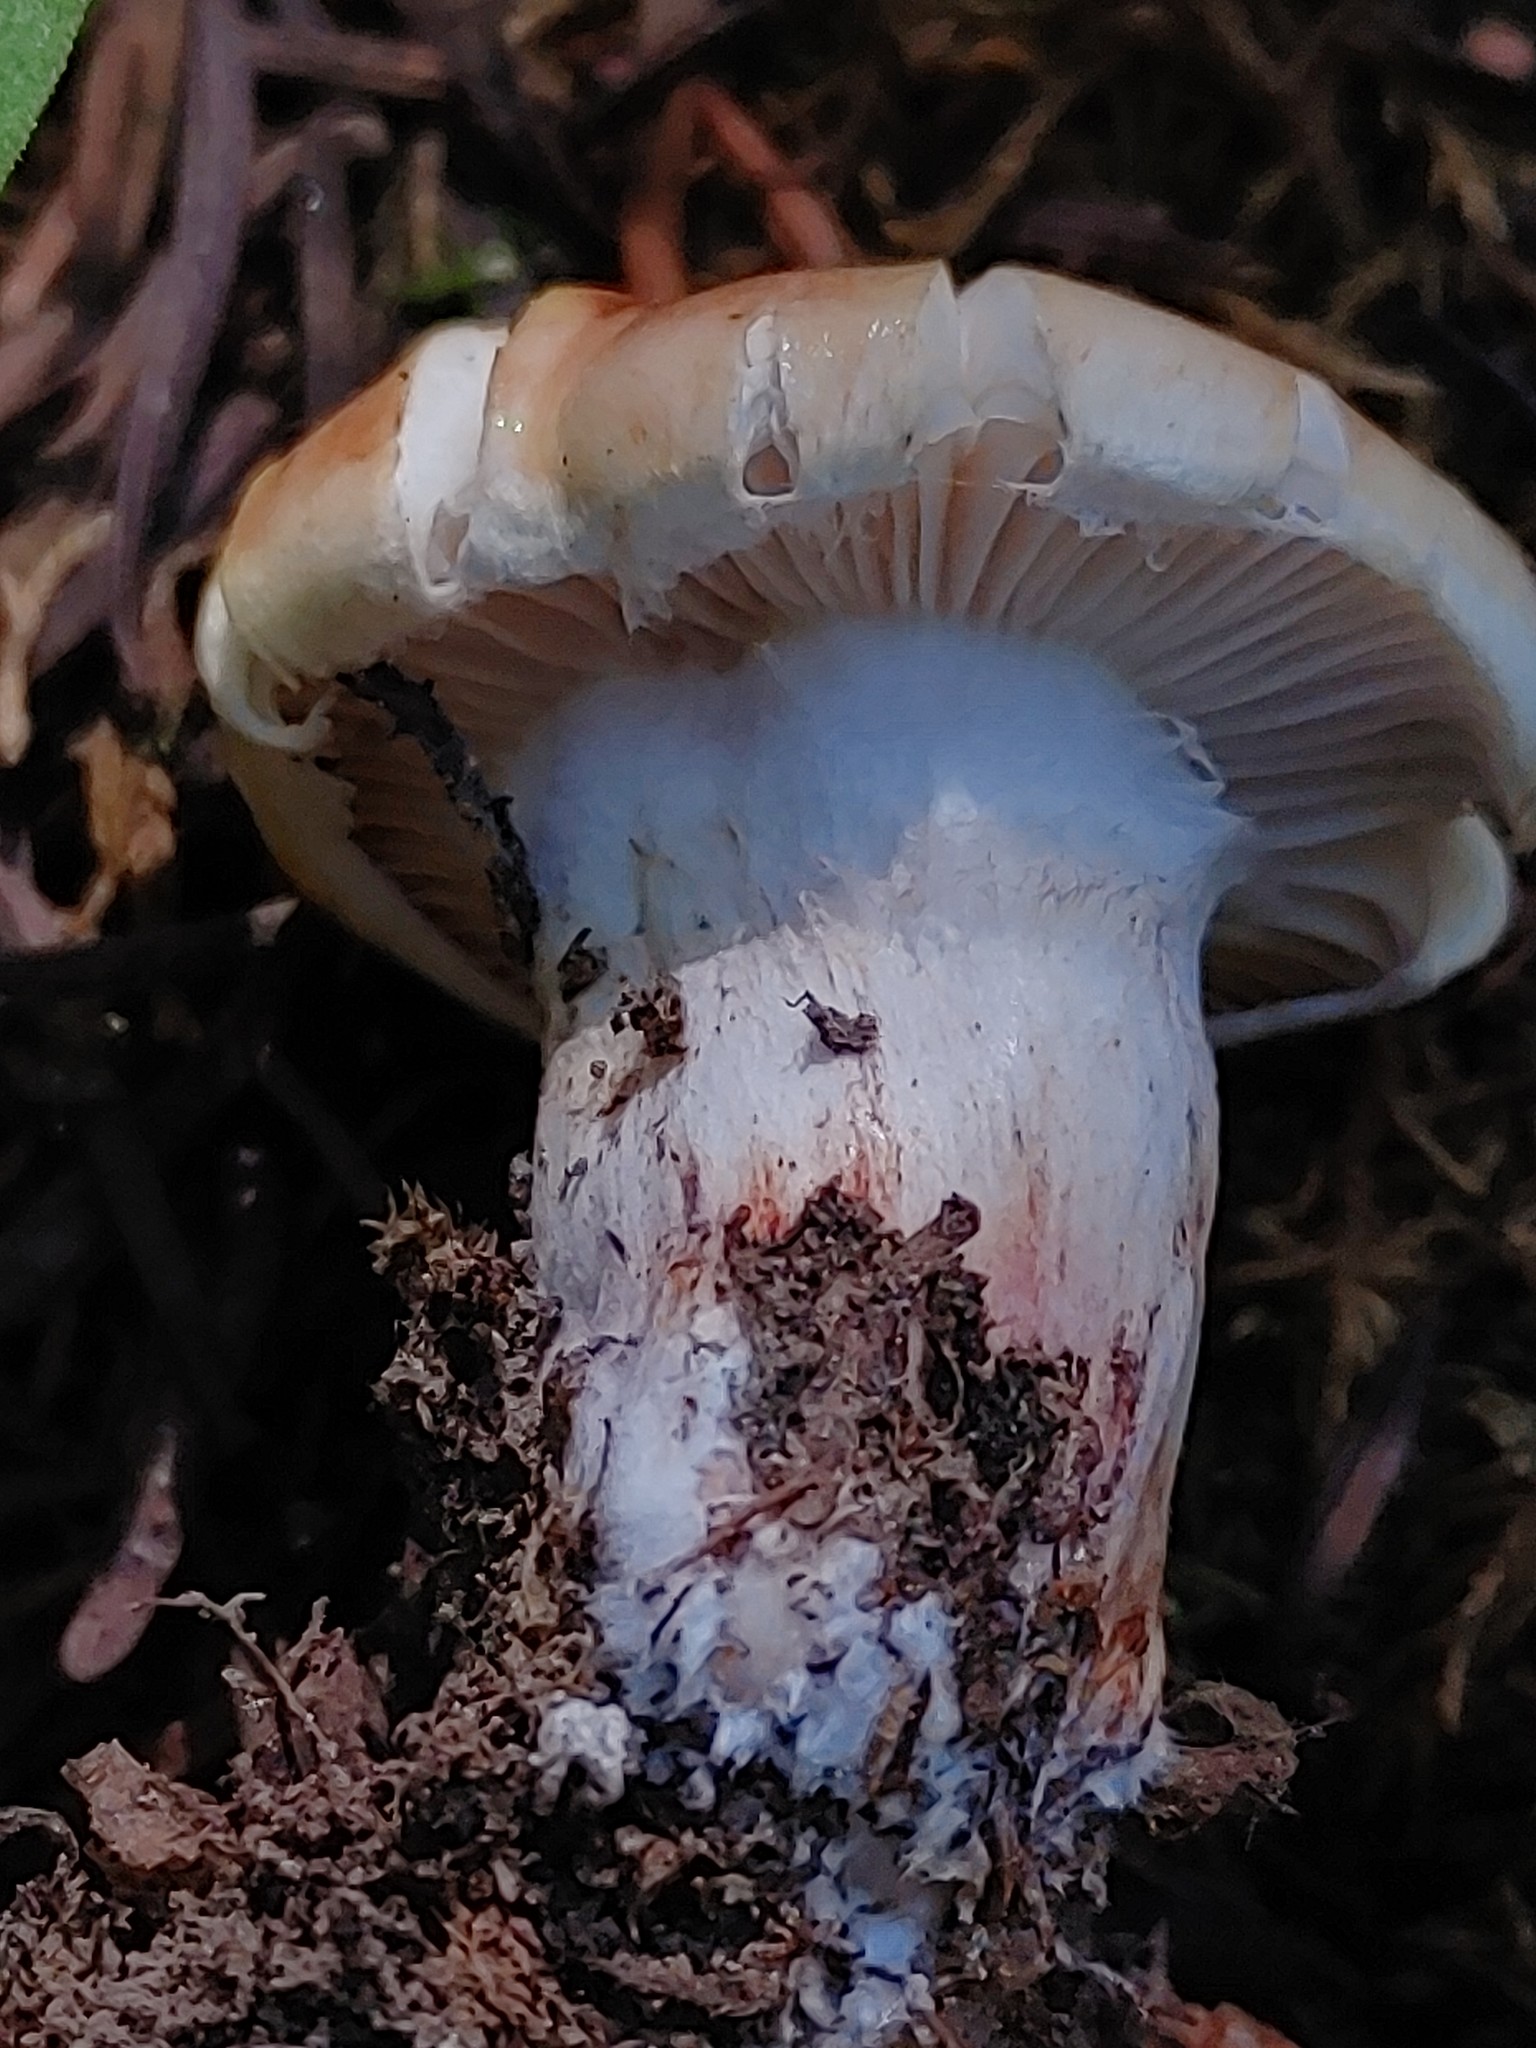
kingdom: Fungi
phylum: Basidiomycota
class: Agaricomycetes
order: Agaricales
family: Hygrophoraceae
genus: Hygrophorus
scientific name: Hygrophorus erubescens
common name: Blotched woodwax
